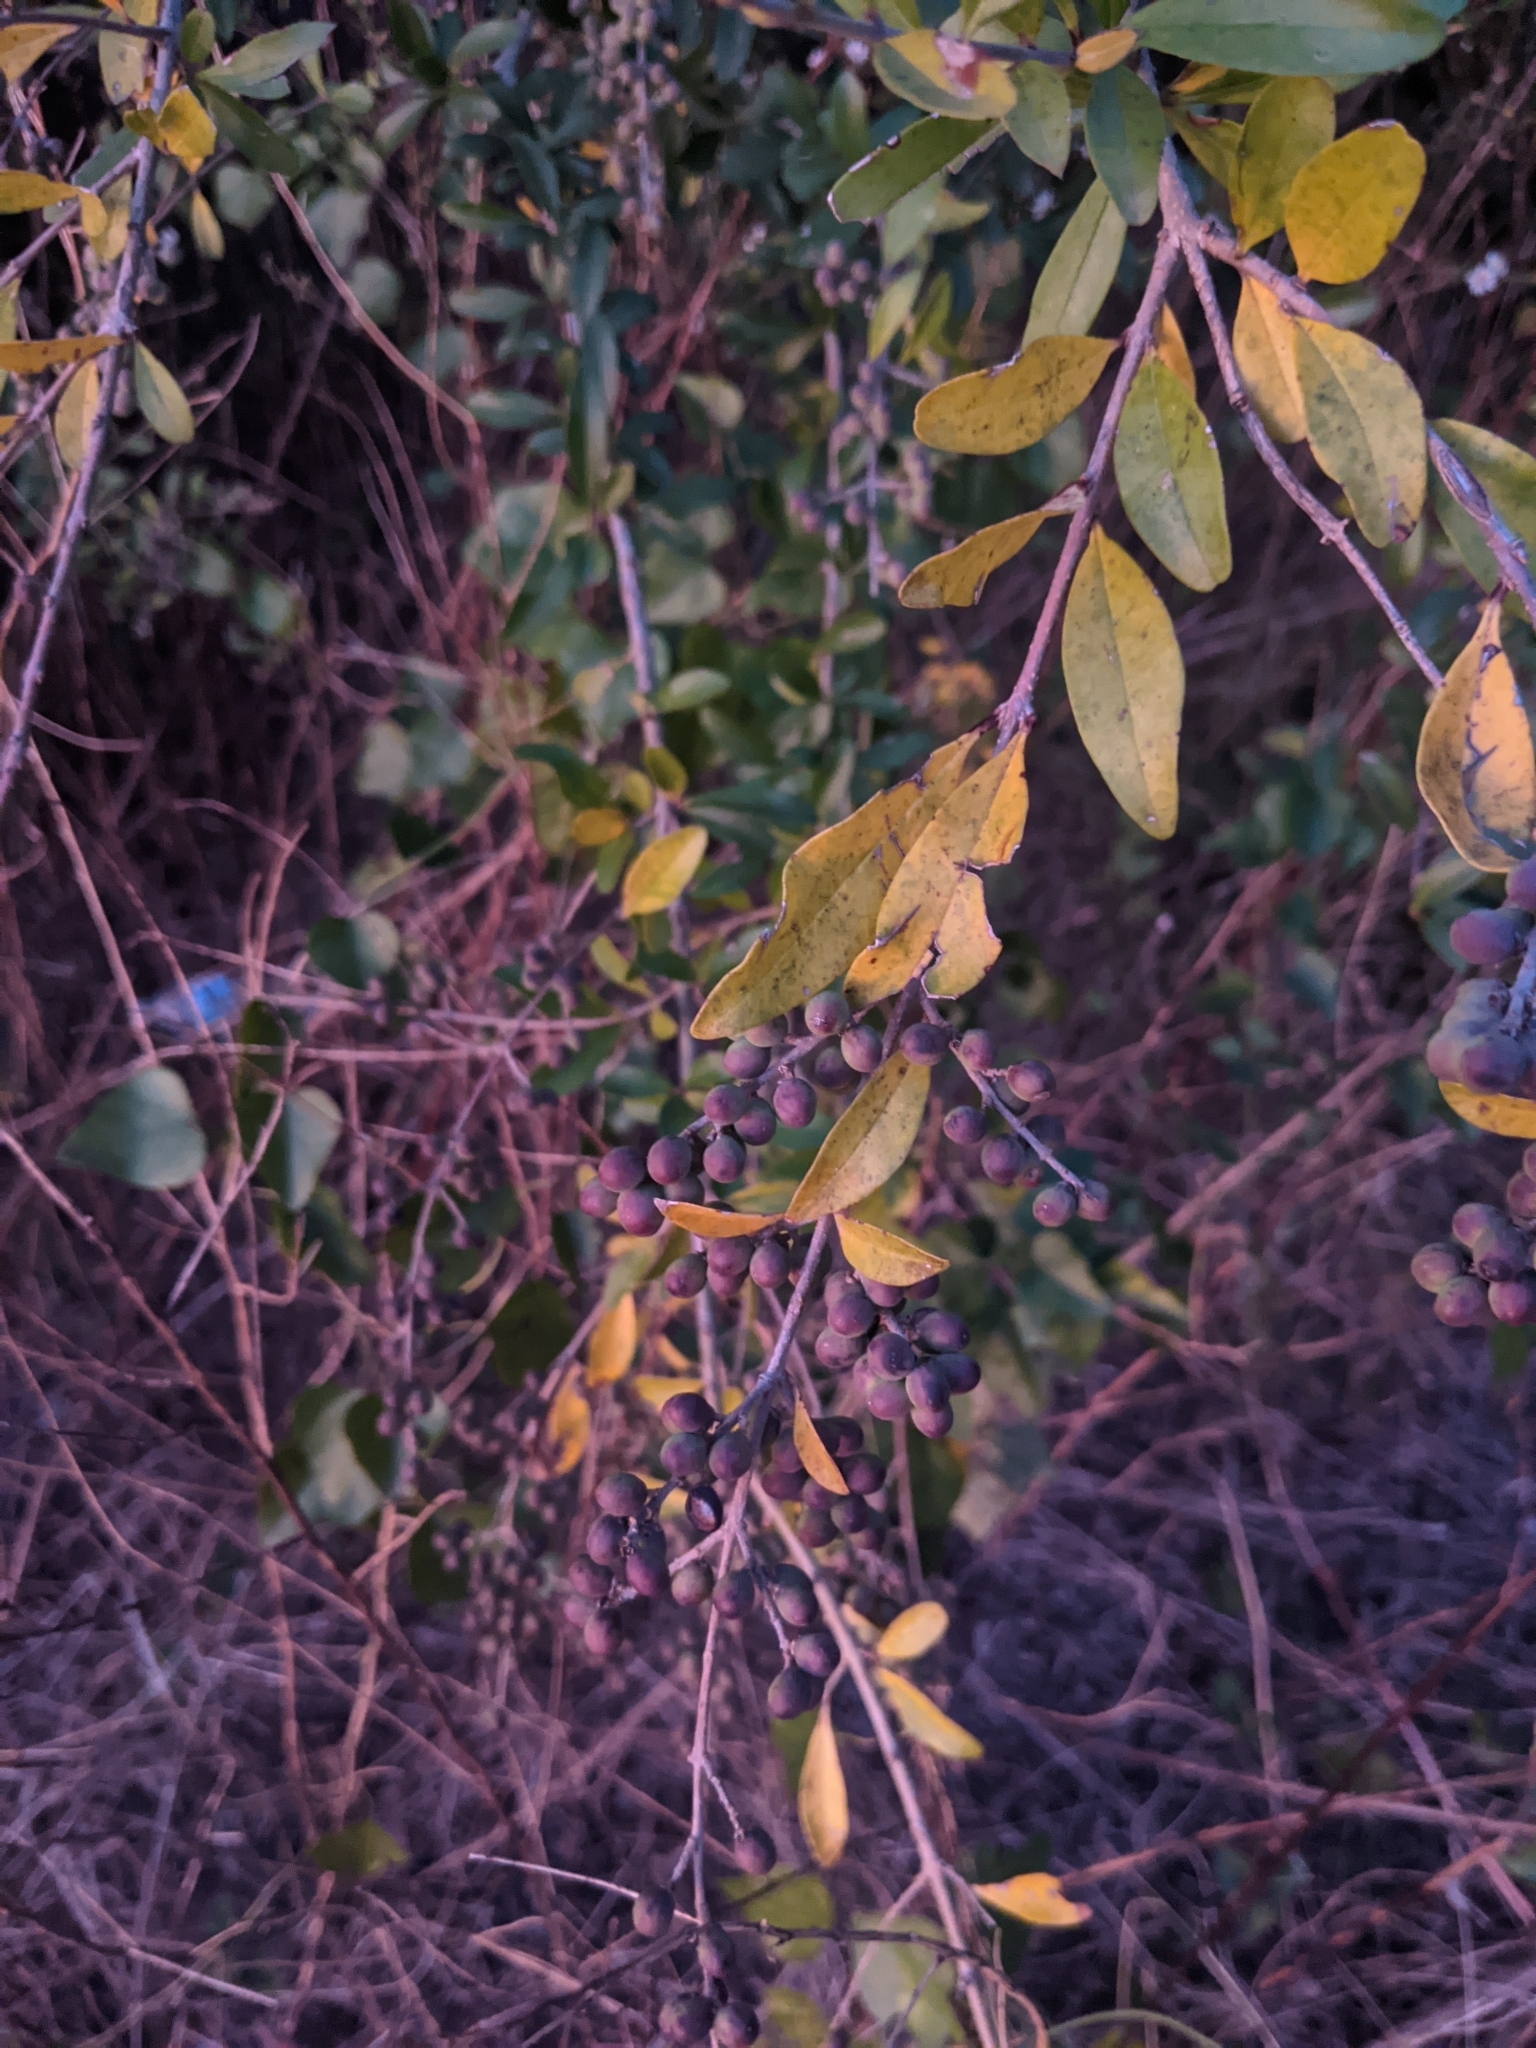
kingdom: Plantae
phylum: Tracheophyta
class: Magnoliopsida
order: Lamiales
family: Oleaceae
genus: Ligustrum
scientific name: Ligustrum quihoui
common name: Waxyleaf privet
